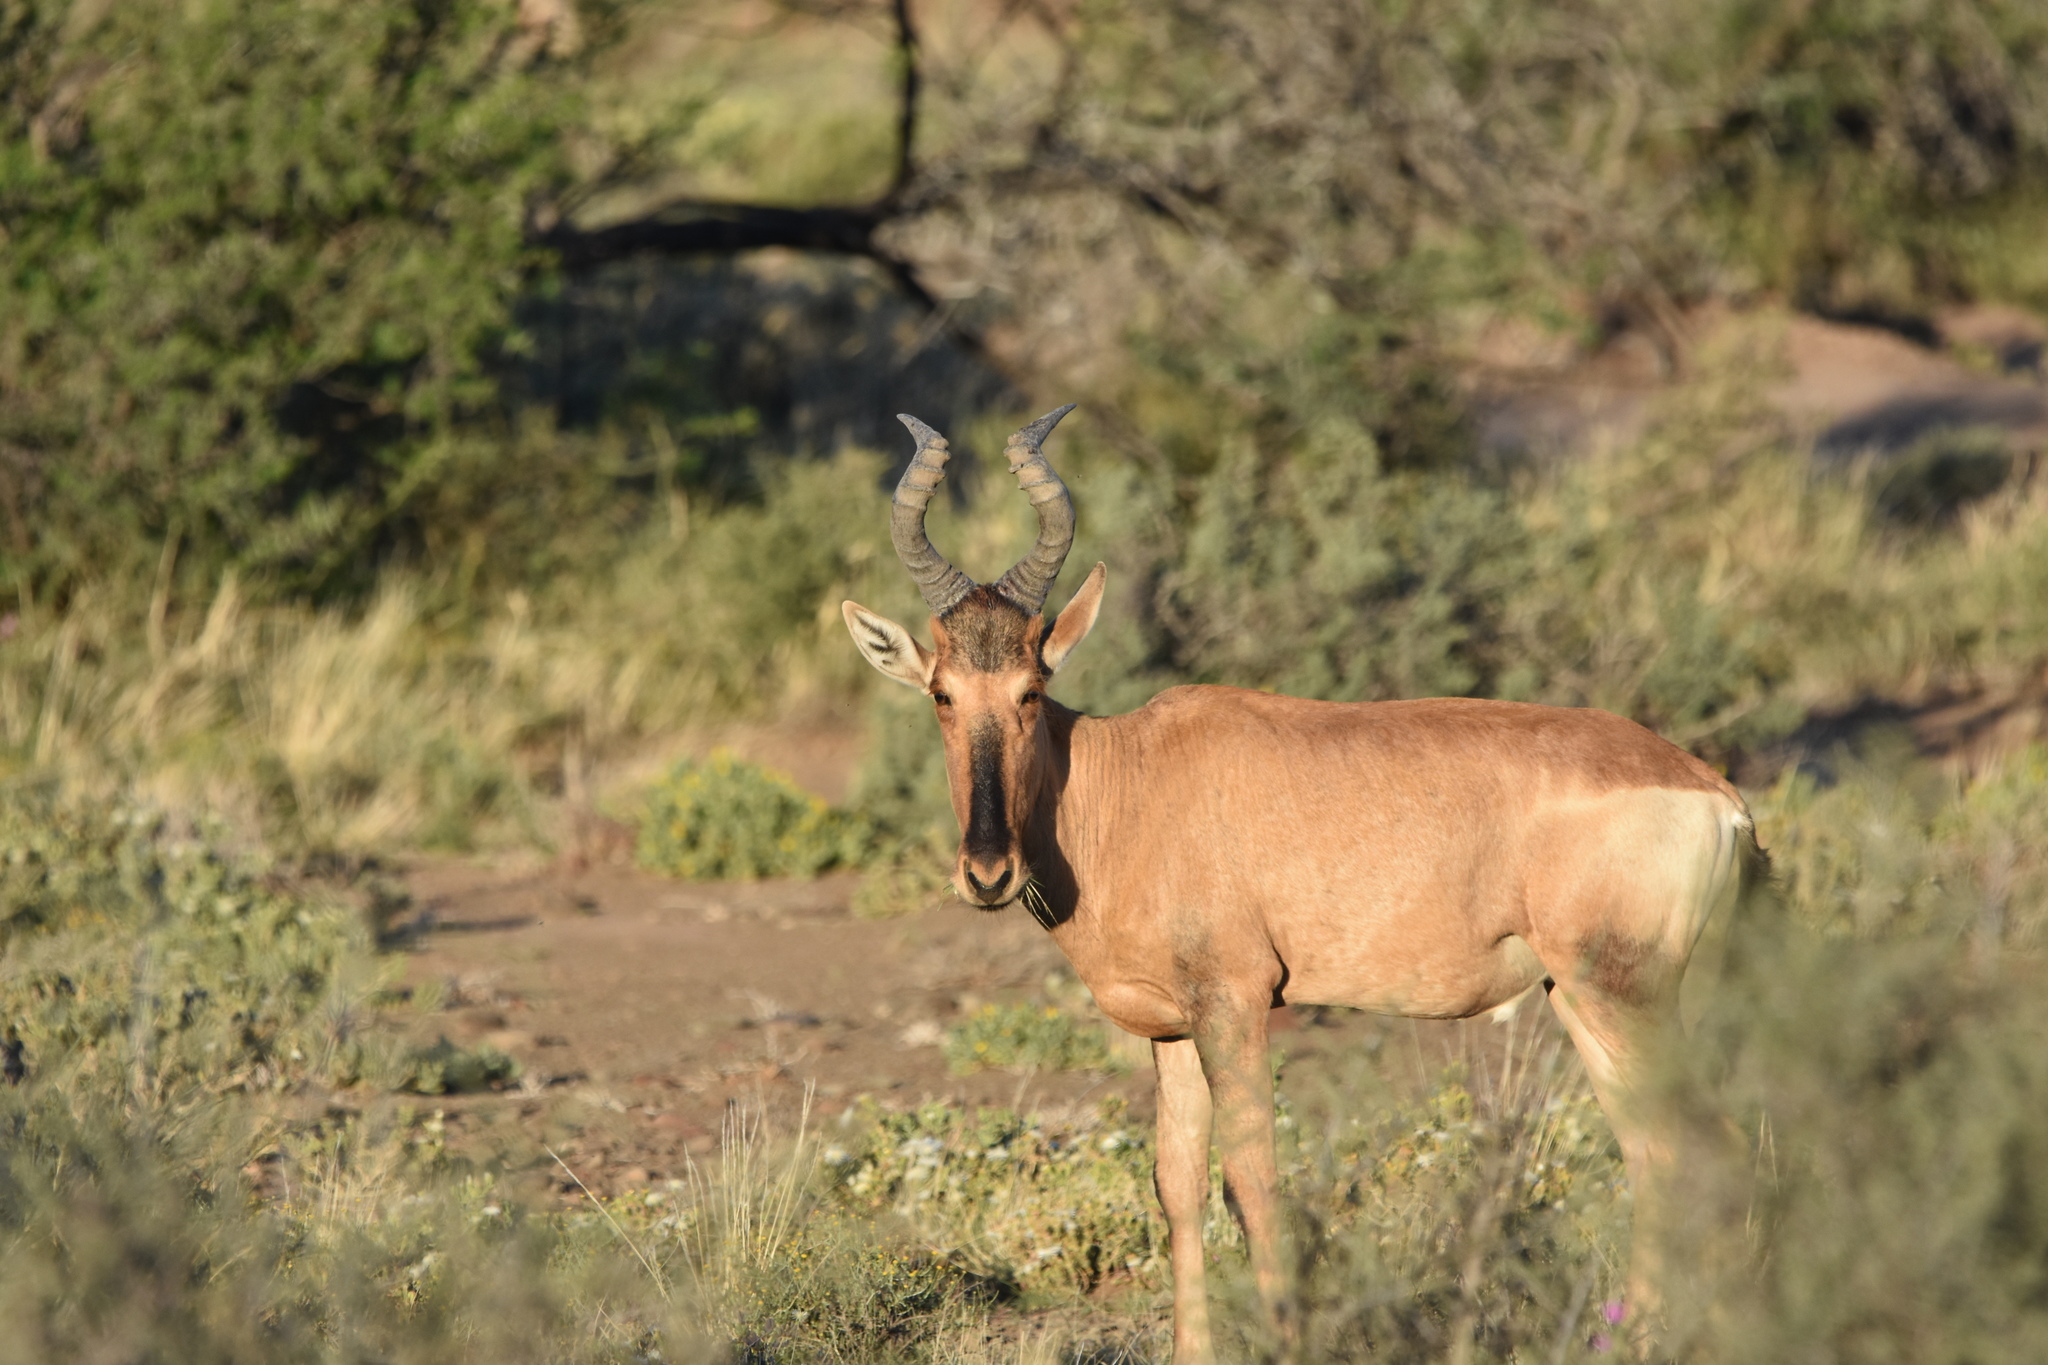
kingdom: Animalia
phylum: Chordata
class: Mammalia
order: Artiodactyla
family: Bovidae
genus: Alcelaphus
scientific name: Alcelaphus caama
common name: Red hartebeest
